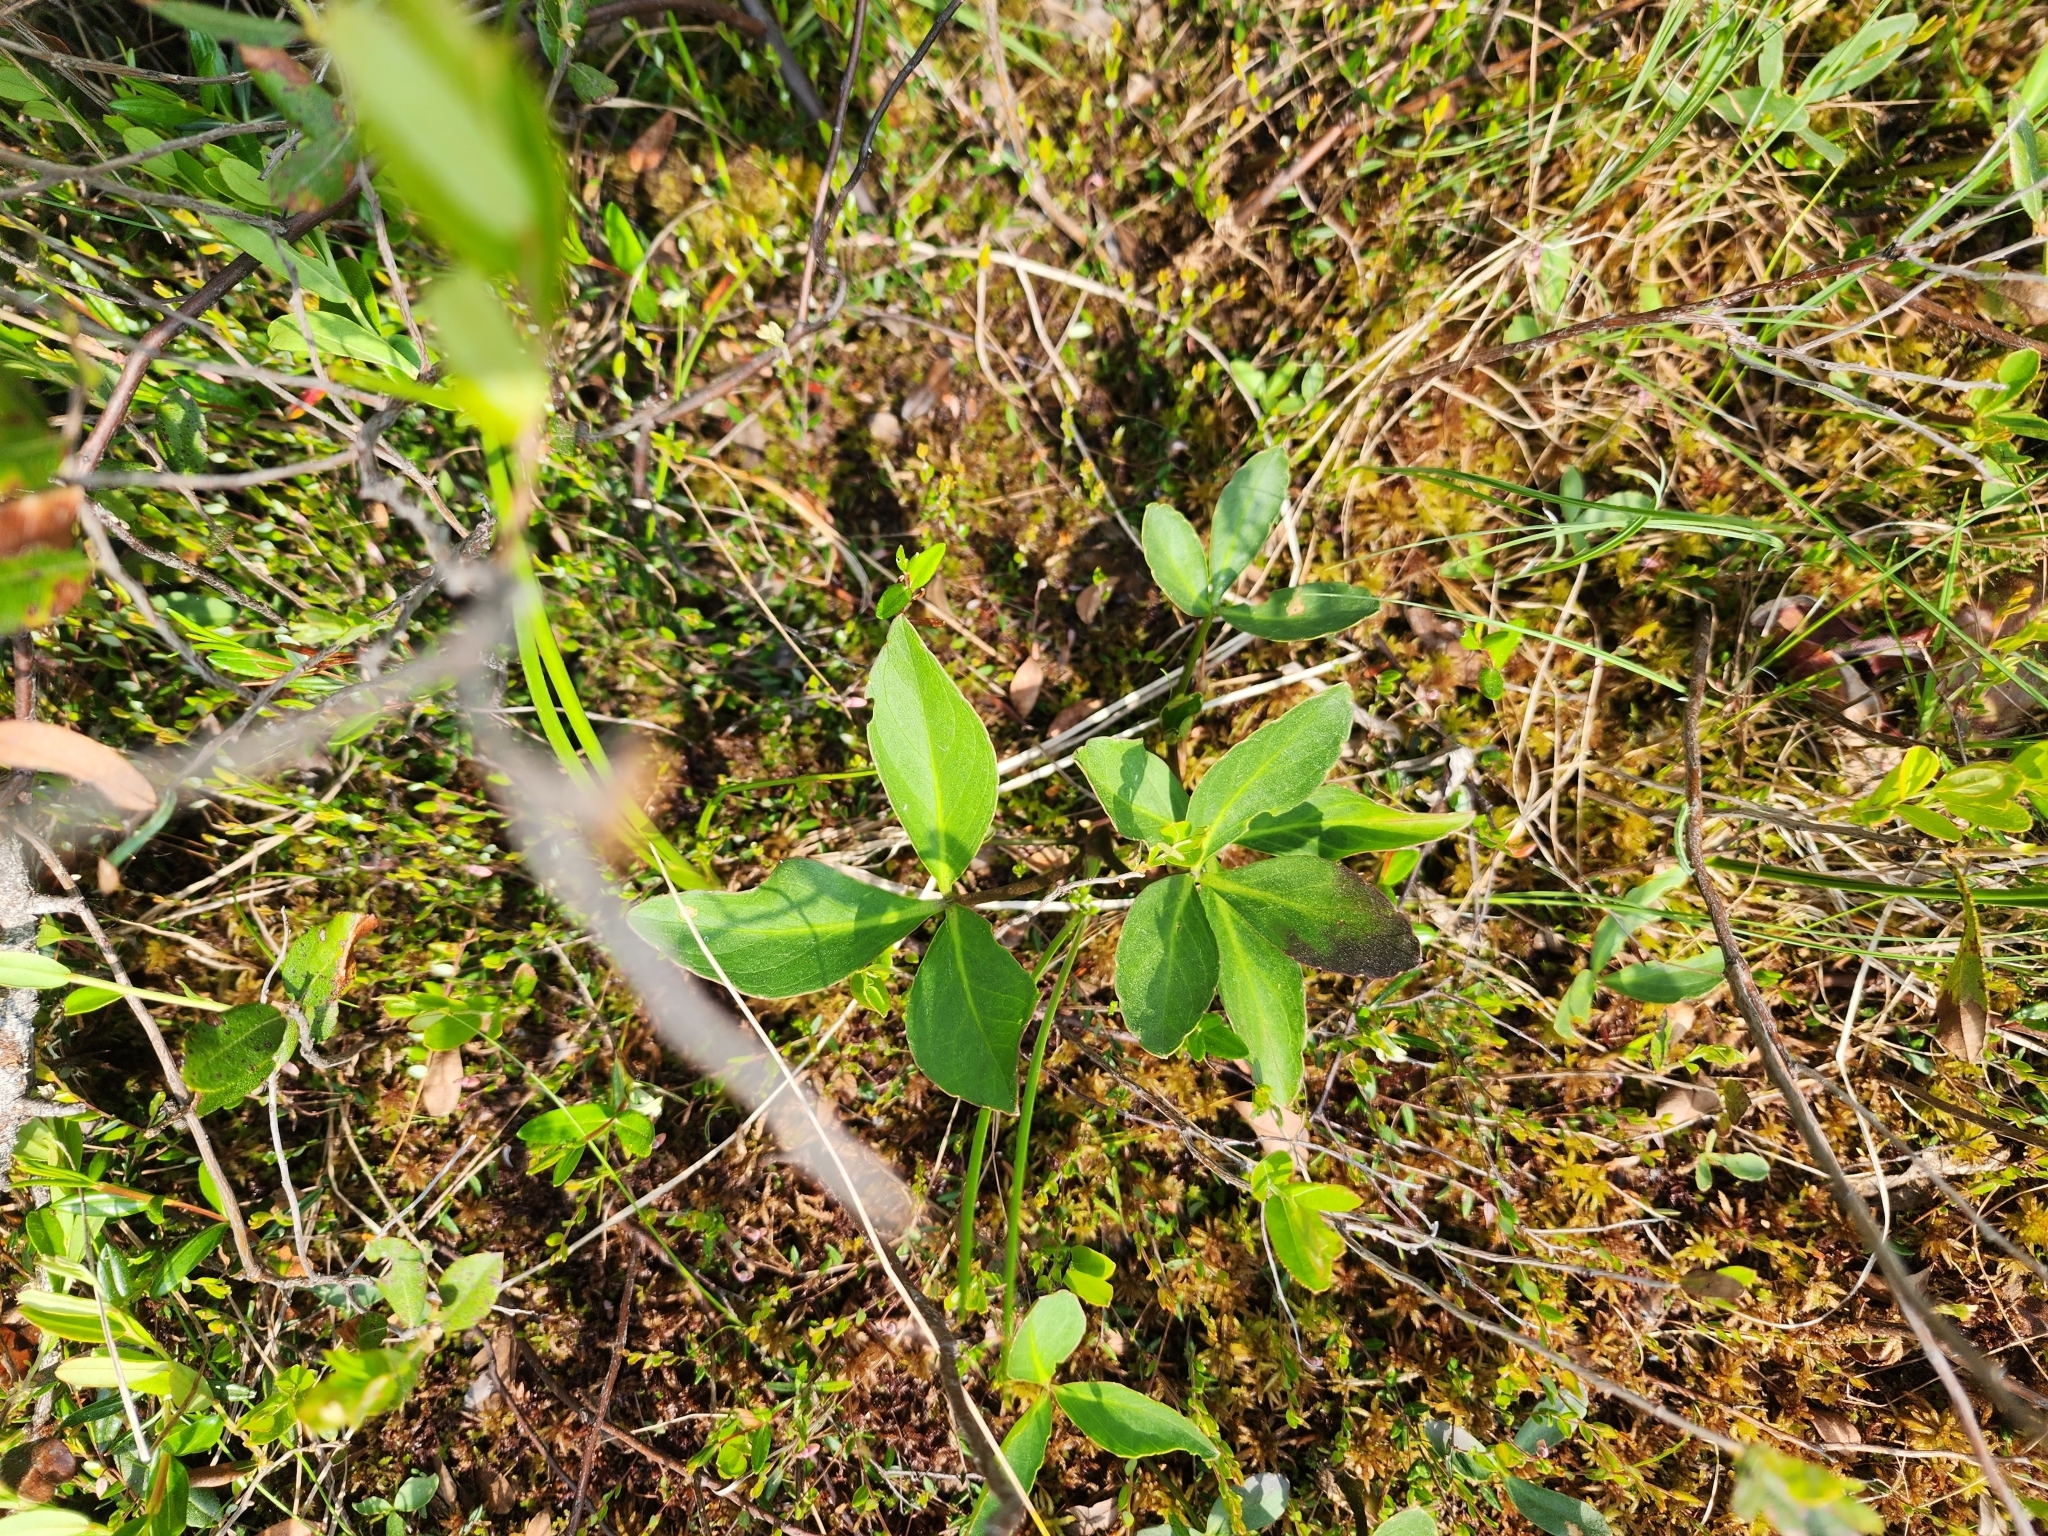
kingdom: Plantae
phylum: Tracheophyta
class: Magnoliopsida
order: Asterales
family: Menyanthaceae
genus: Menyanthes
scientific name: Menyanthes trifoliata
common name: Bogbean
